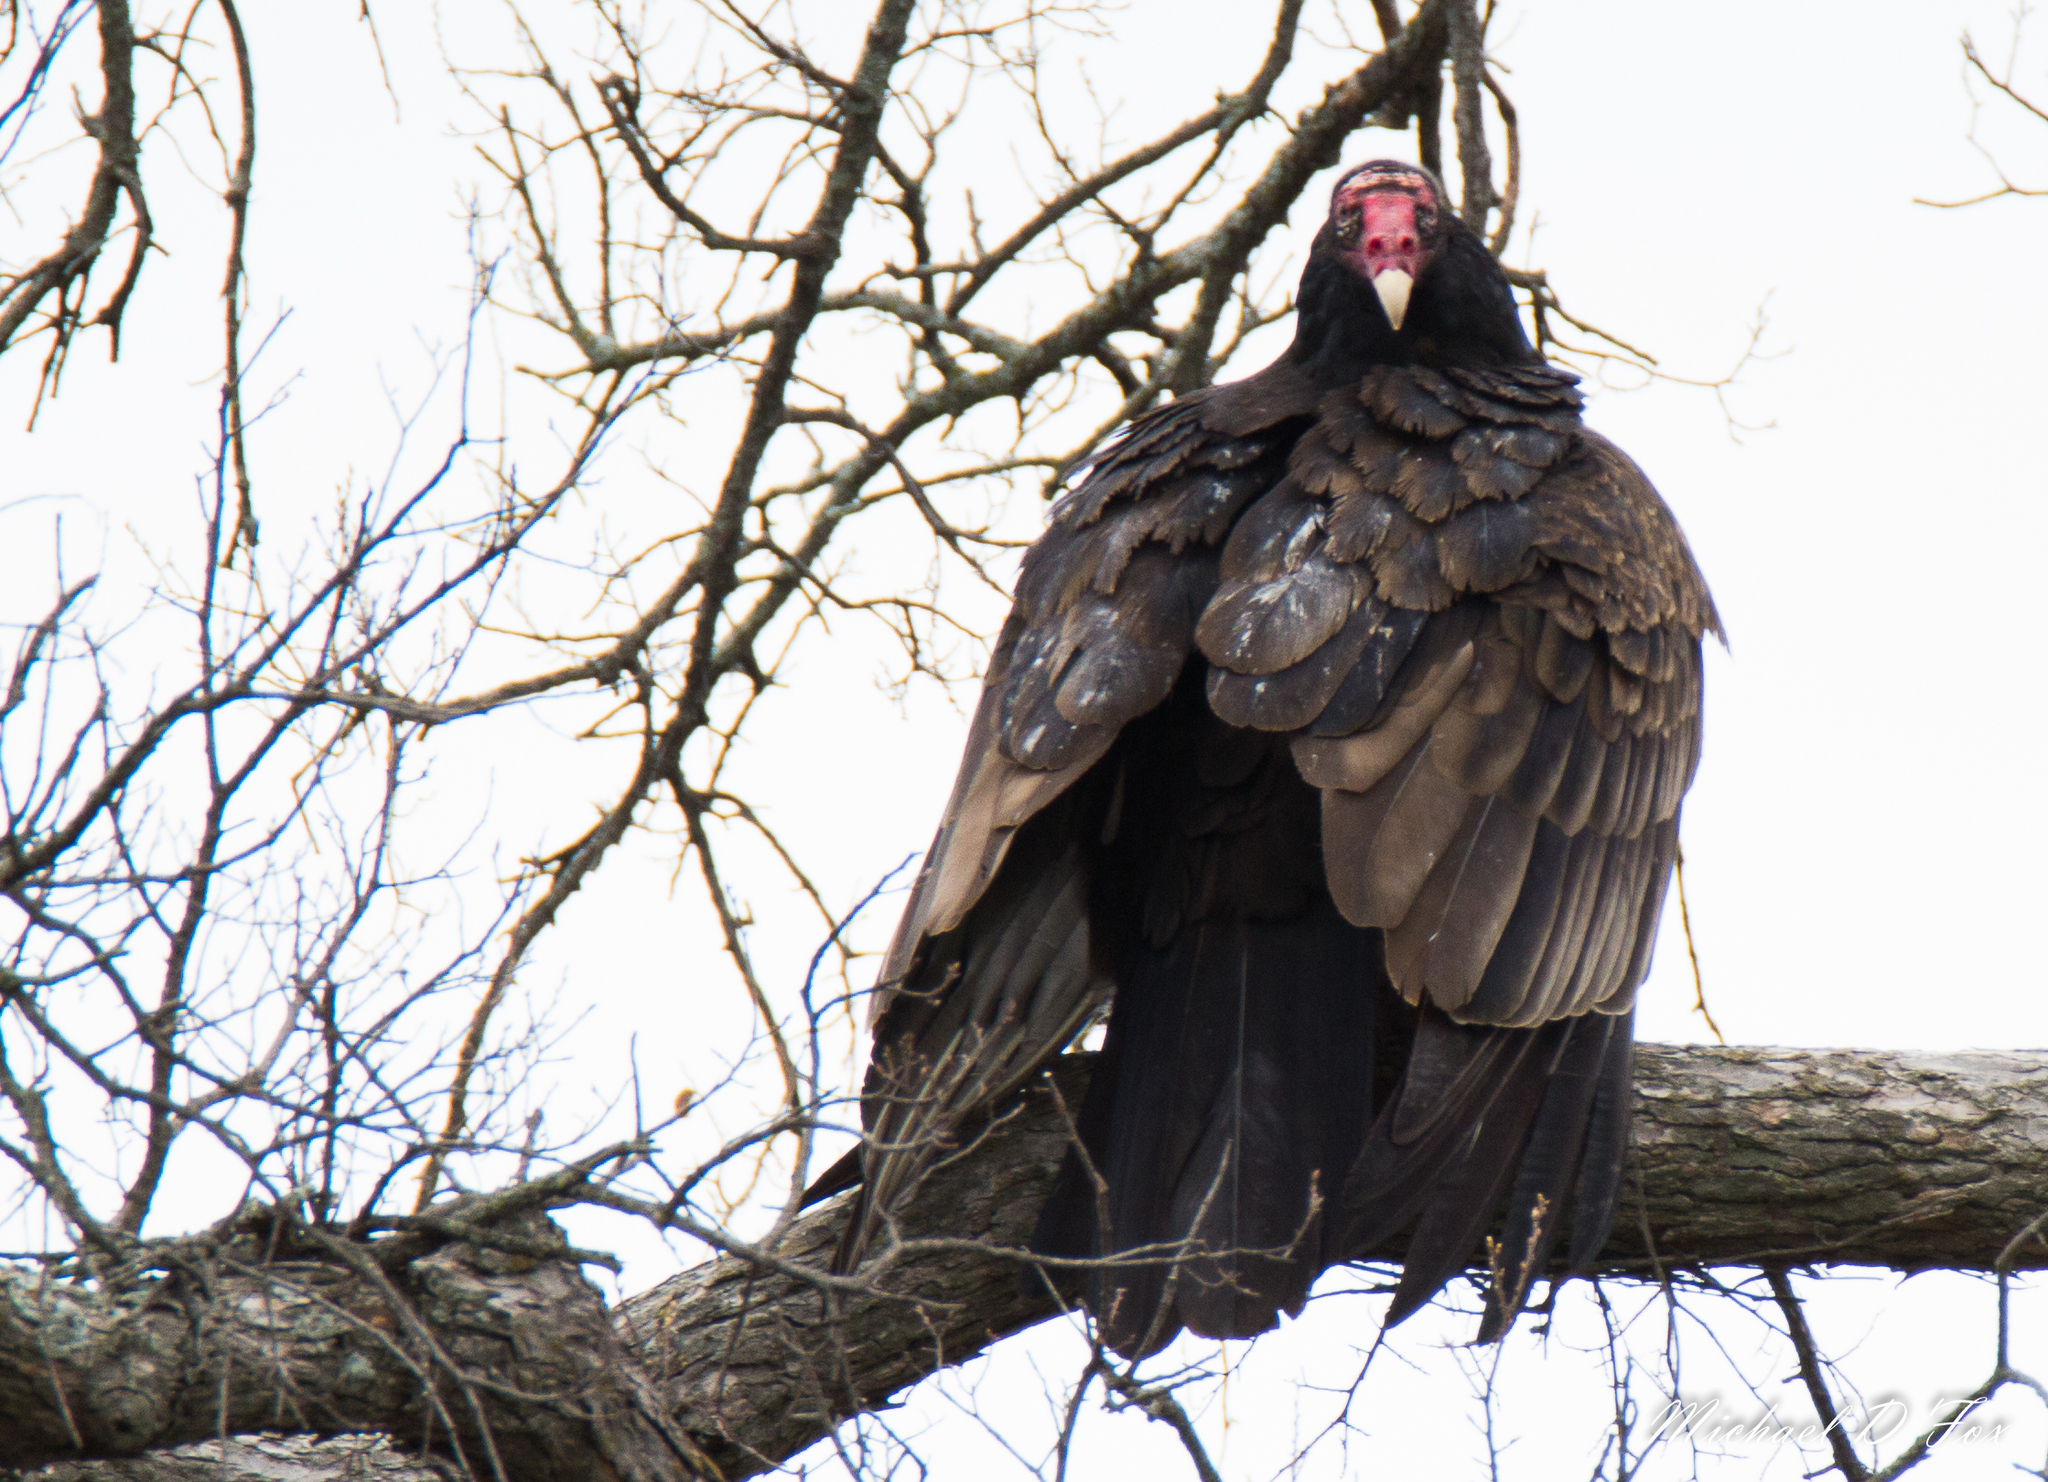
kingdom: Animalia
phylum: Chordata
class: Aves
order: Accipitriformes
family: Cathartidae
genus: Cathartes
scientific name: Cathartes aura
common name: Turkey vulture
